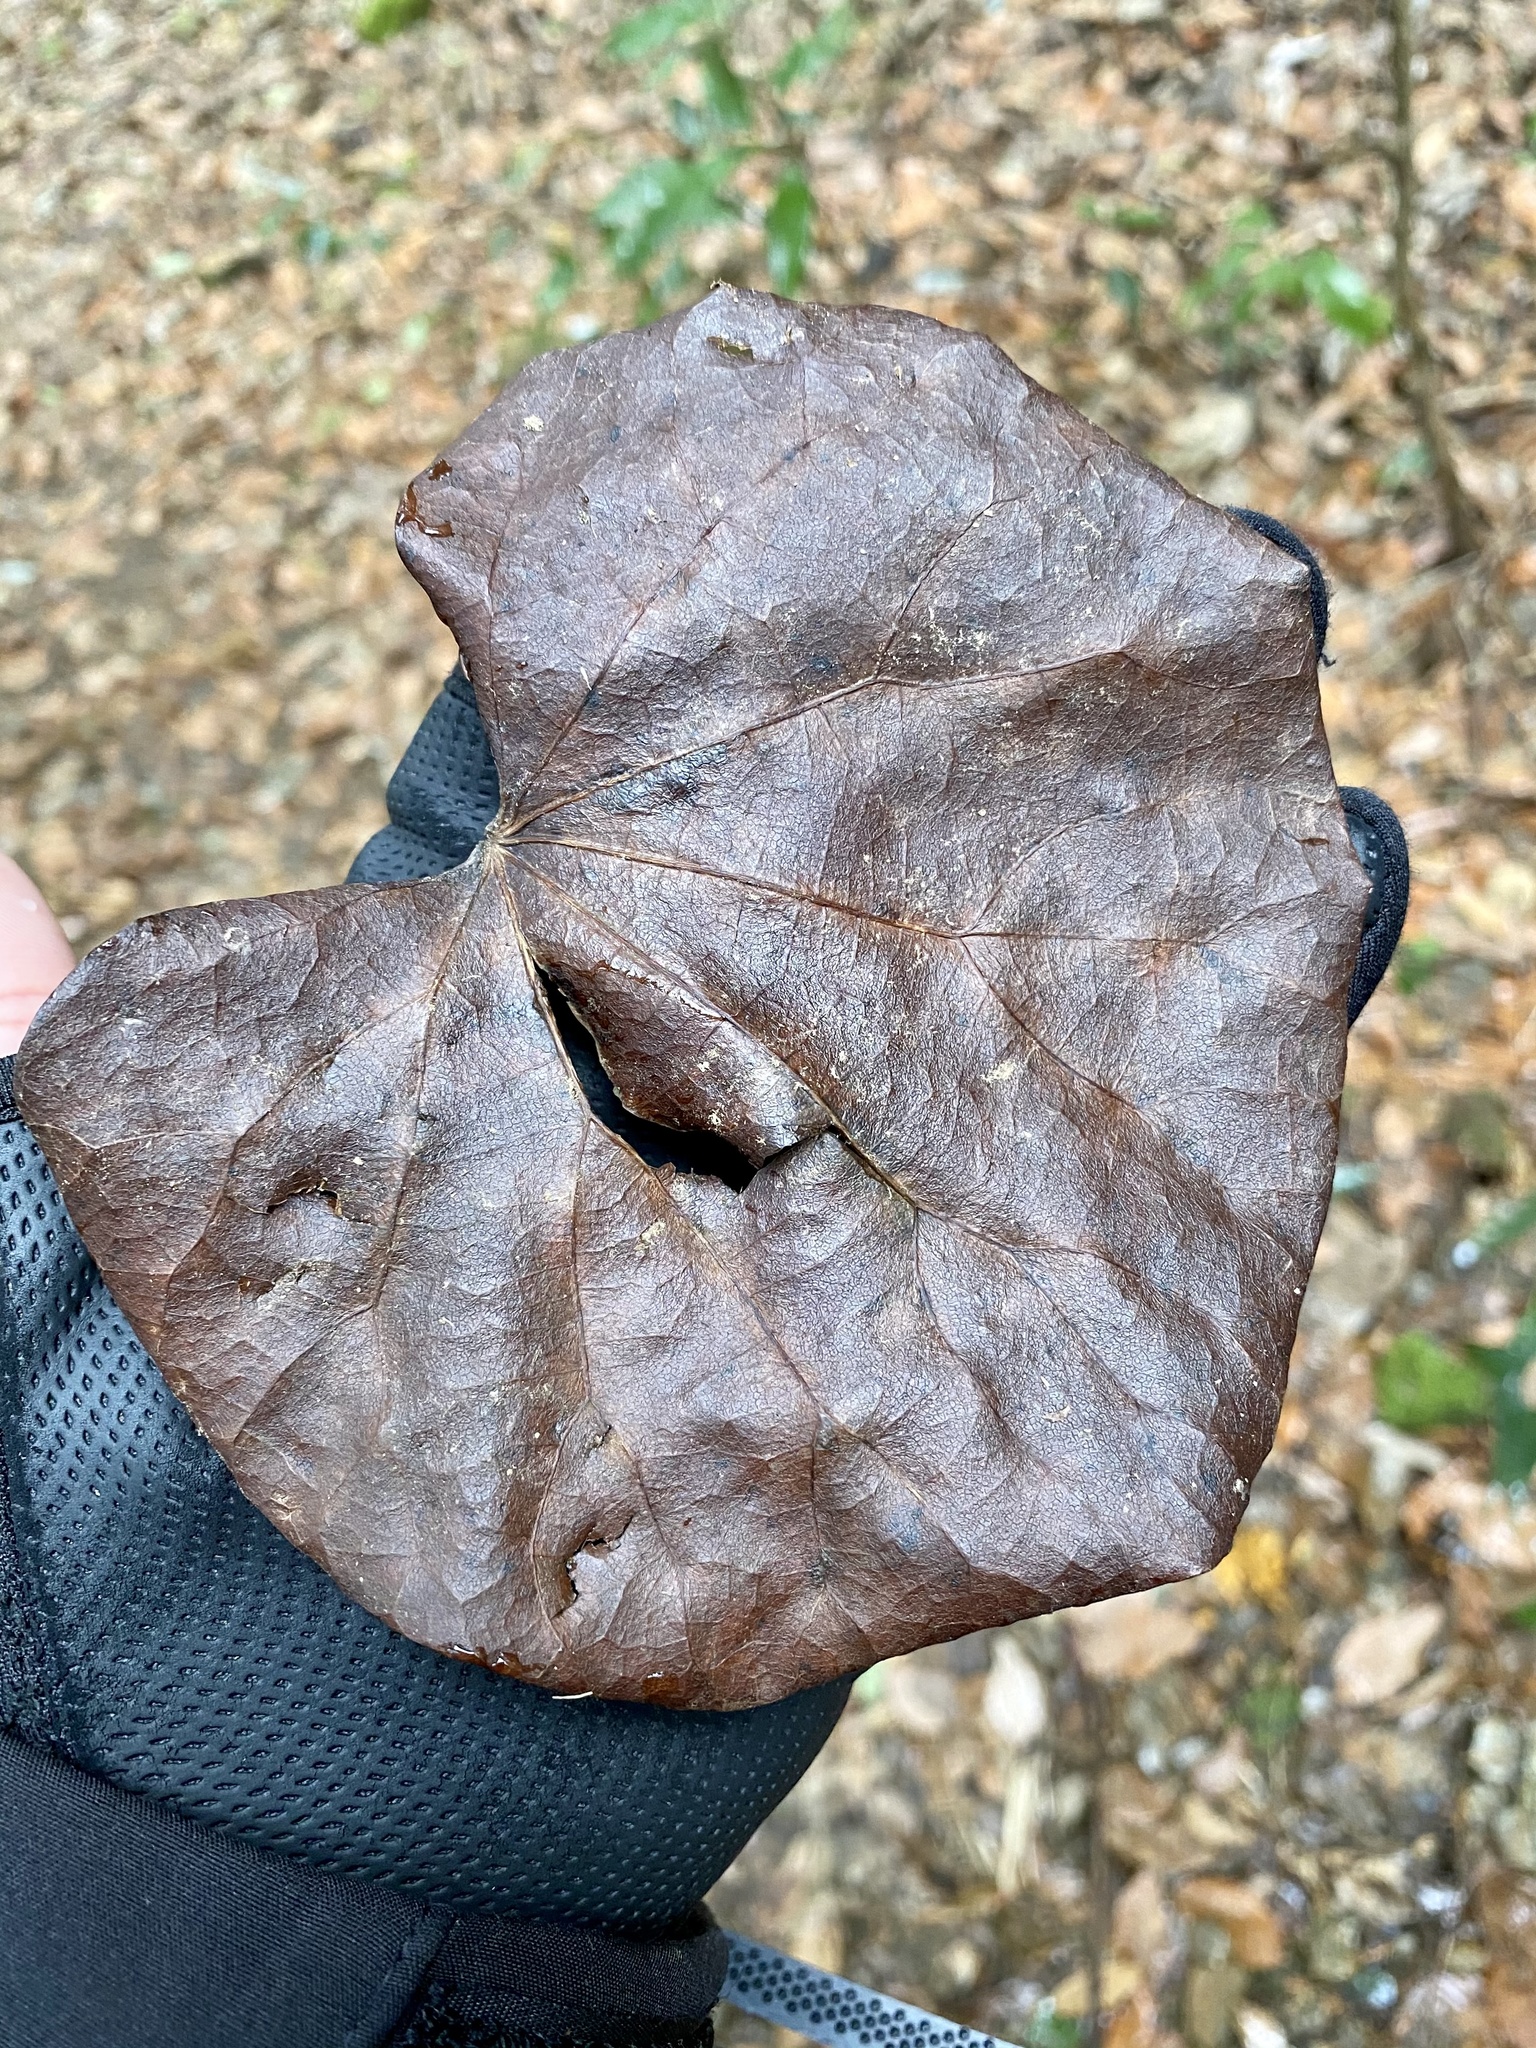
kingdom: Plantae
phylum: Tracheophyta
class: Magnoliopsida
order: Ranunculales
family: Menispermaceae
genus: Sinomenium
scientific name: Sinomenium acutum
